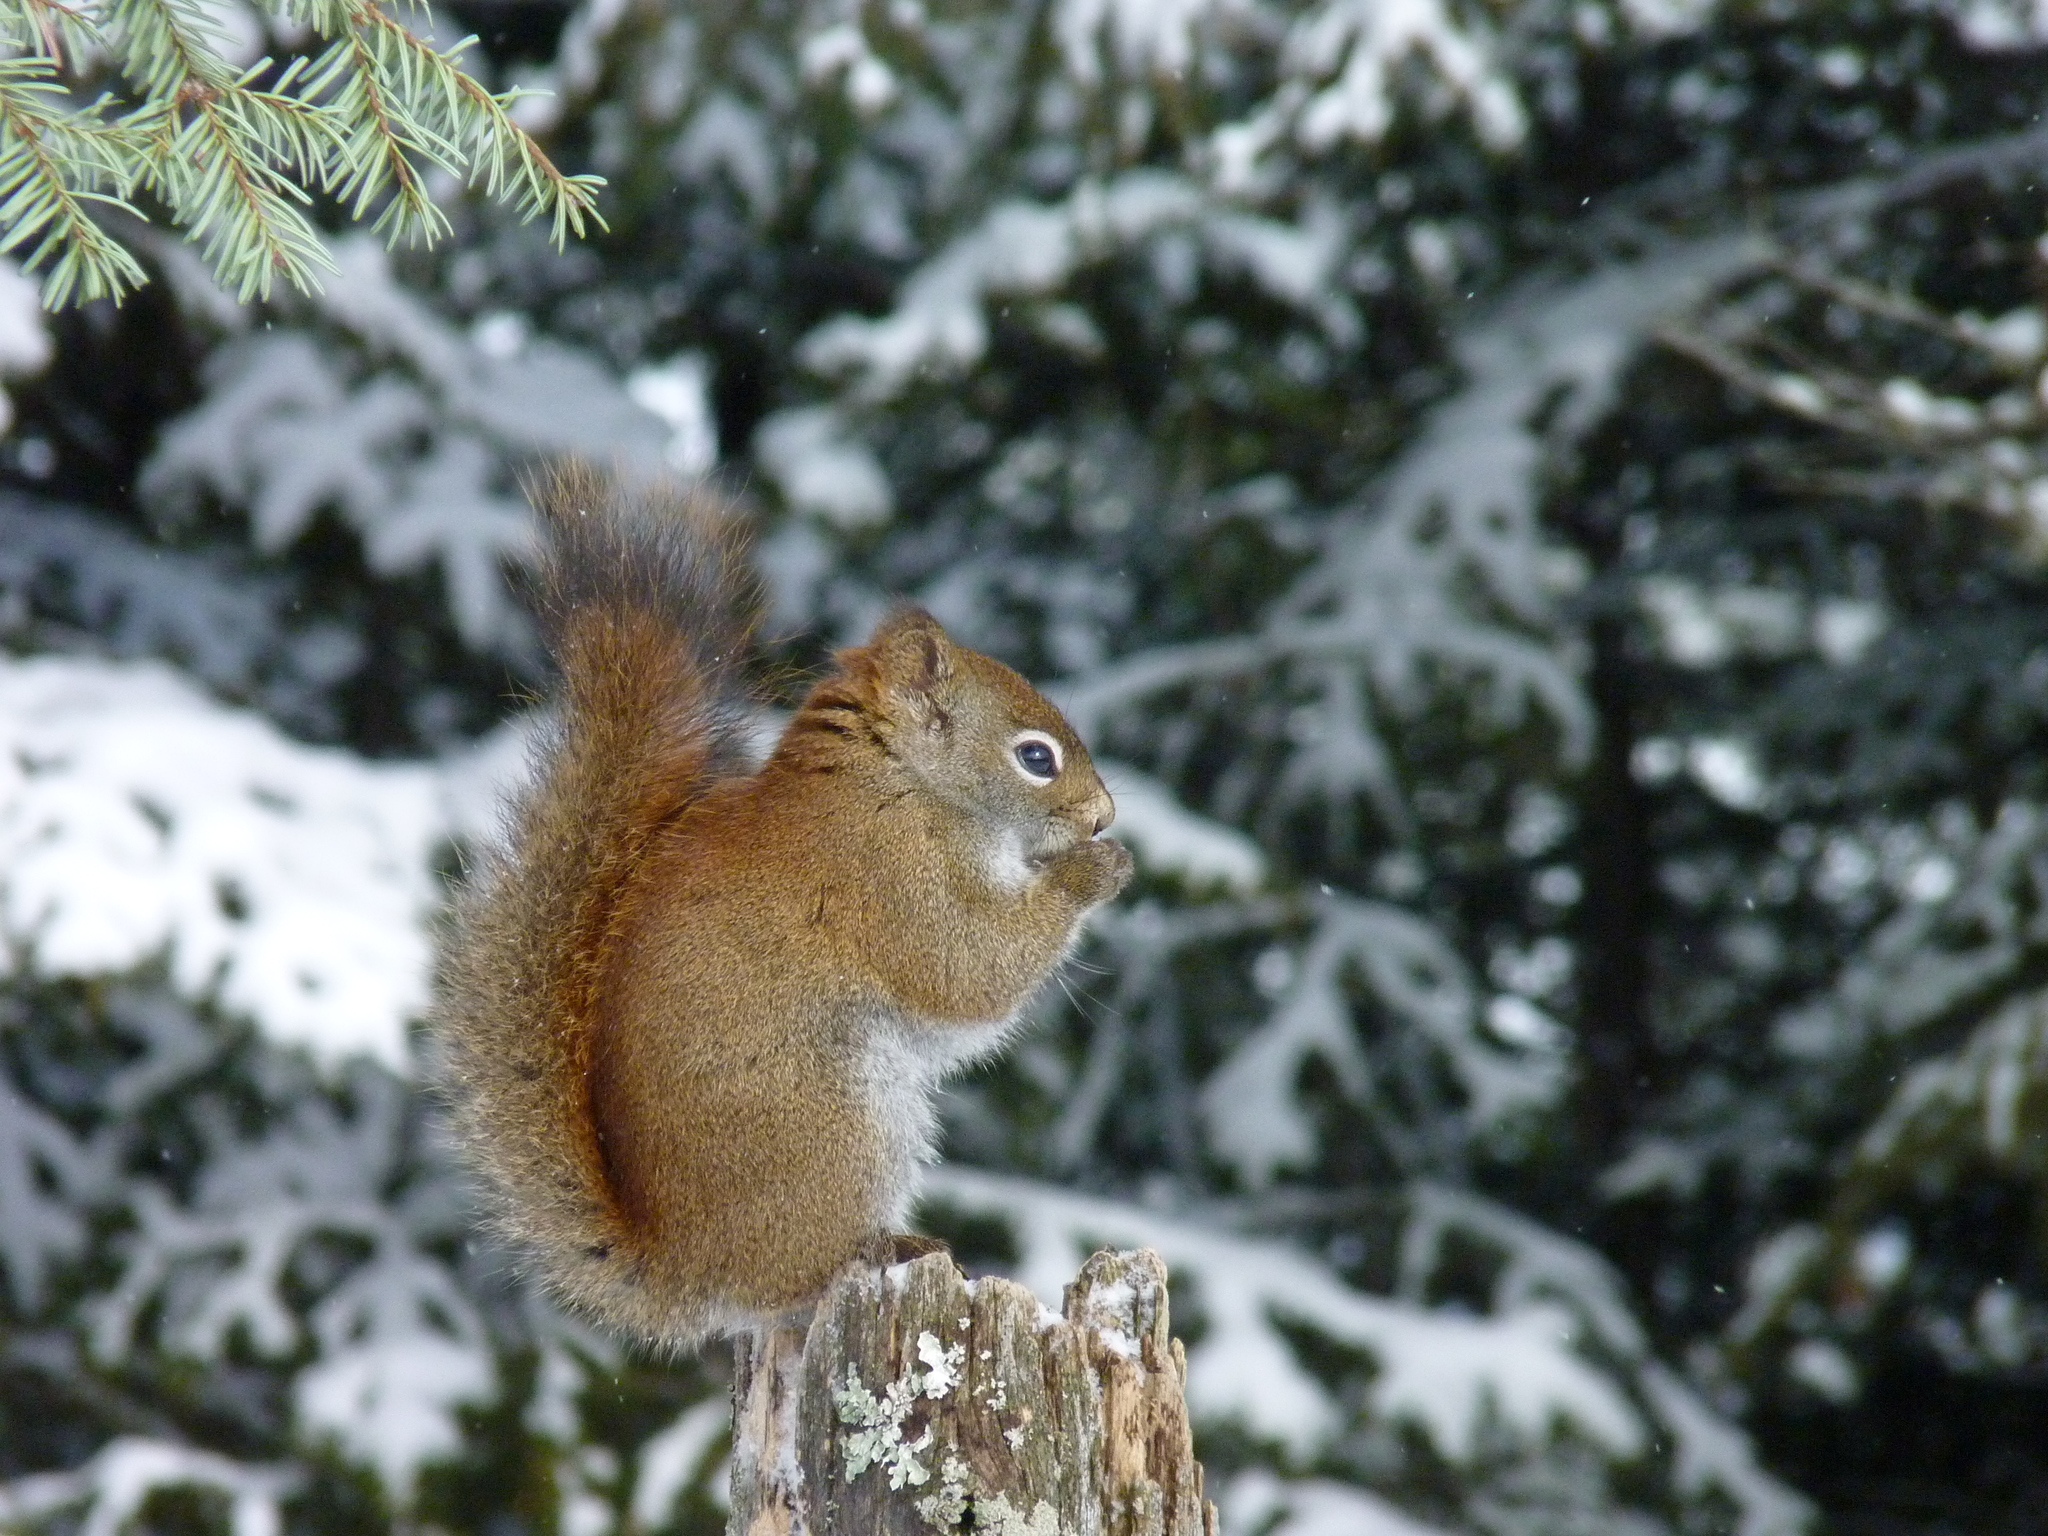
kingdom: Animalia
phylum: Chordata
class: Mammalia
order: Rodentia
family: Sciuridae
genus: Tamiasciurus
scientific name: Tamiasciurus hudsonicus
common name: Red squirrel
